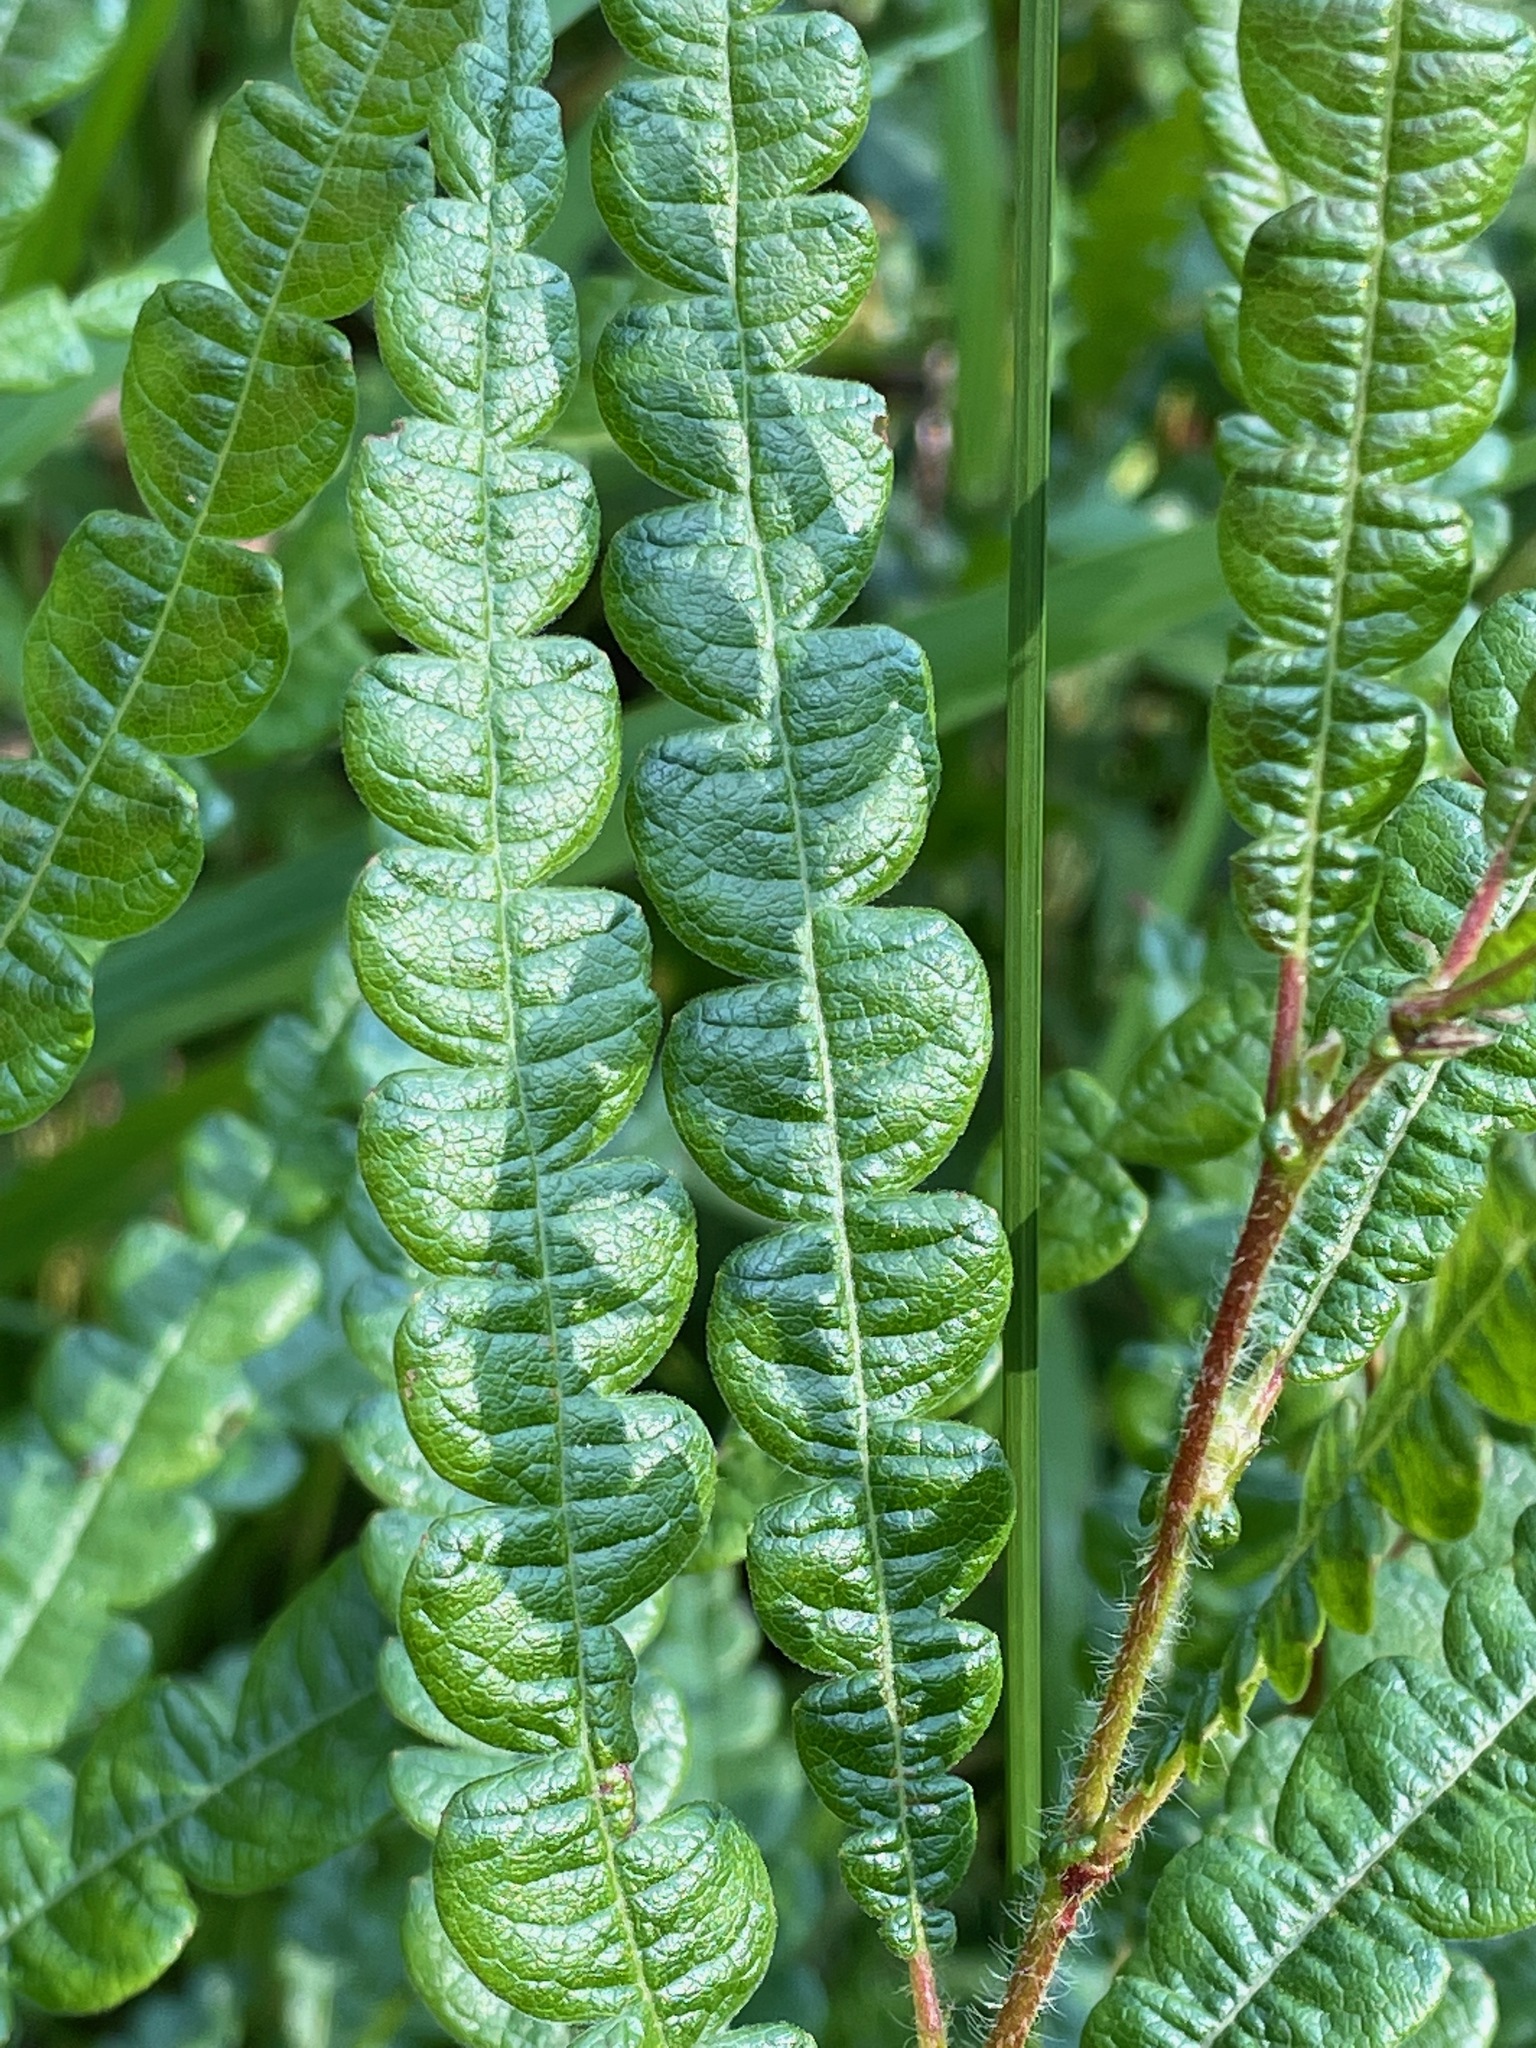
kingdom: Plantae
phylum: Tracheophyta
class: Magnoliopsida
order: Fagales
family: Myricaceae
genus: Comptonia
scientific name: Comptonia peregrina
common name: Sweet-fern
